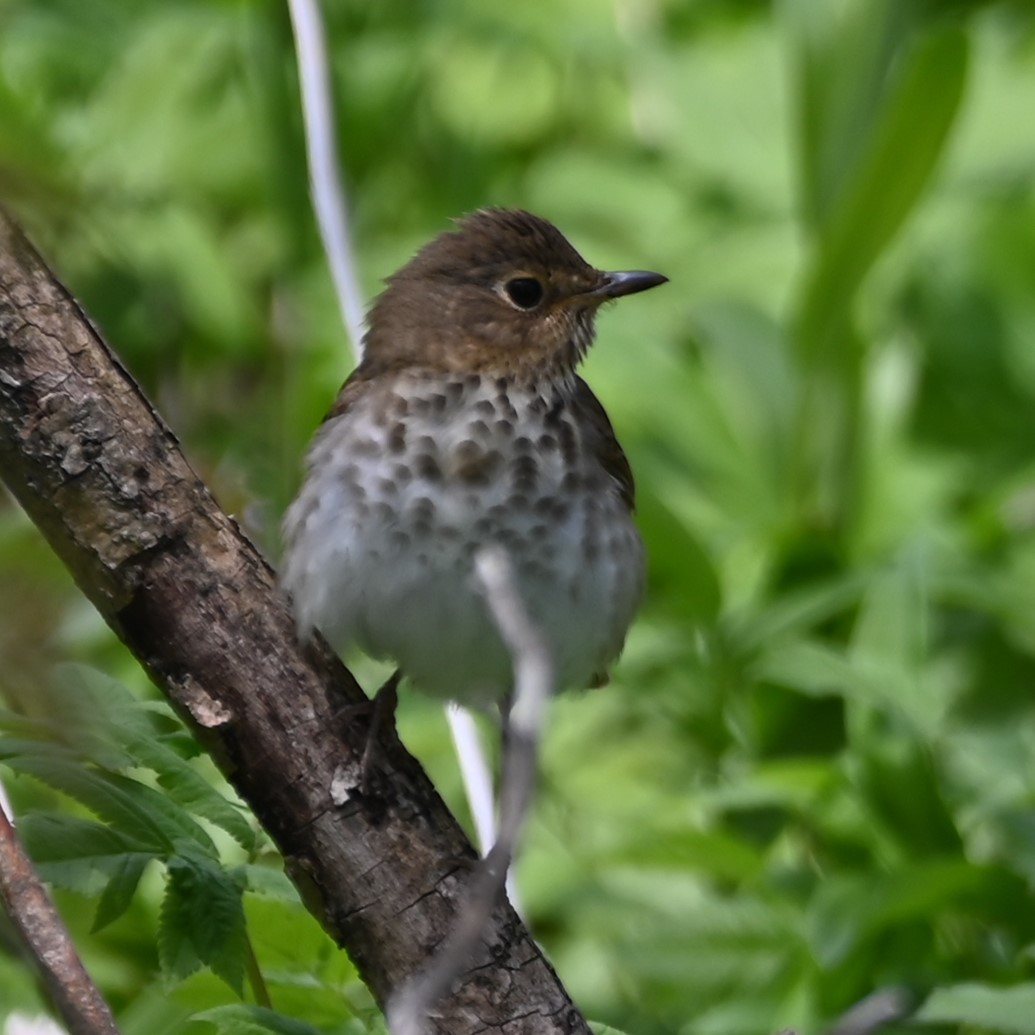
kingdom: Animalia
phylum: Chordata
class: Aves
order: Passeriformes
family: Turdidae
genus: Catharus
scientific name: Catharus ustulatus
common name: Swainson's thrush
